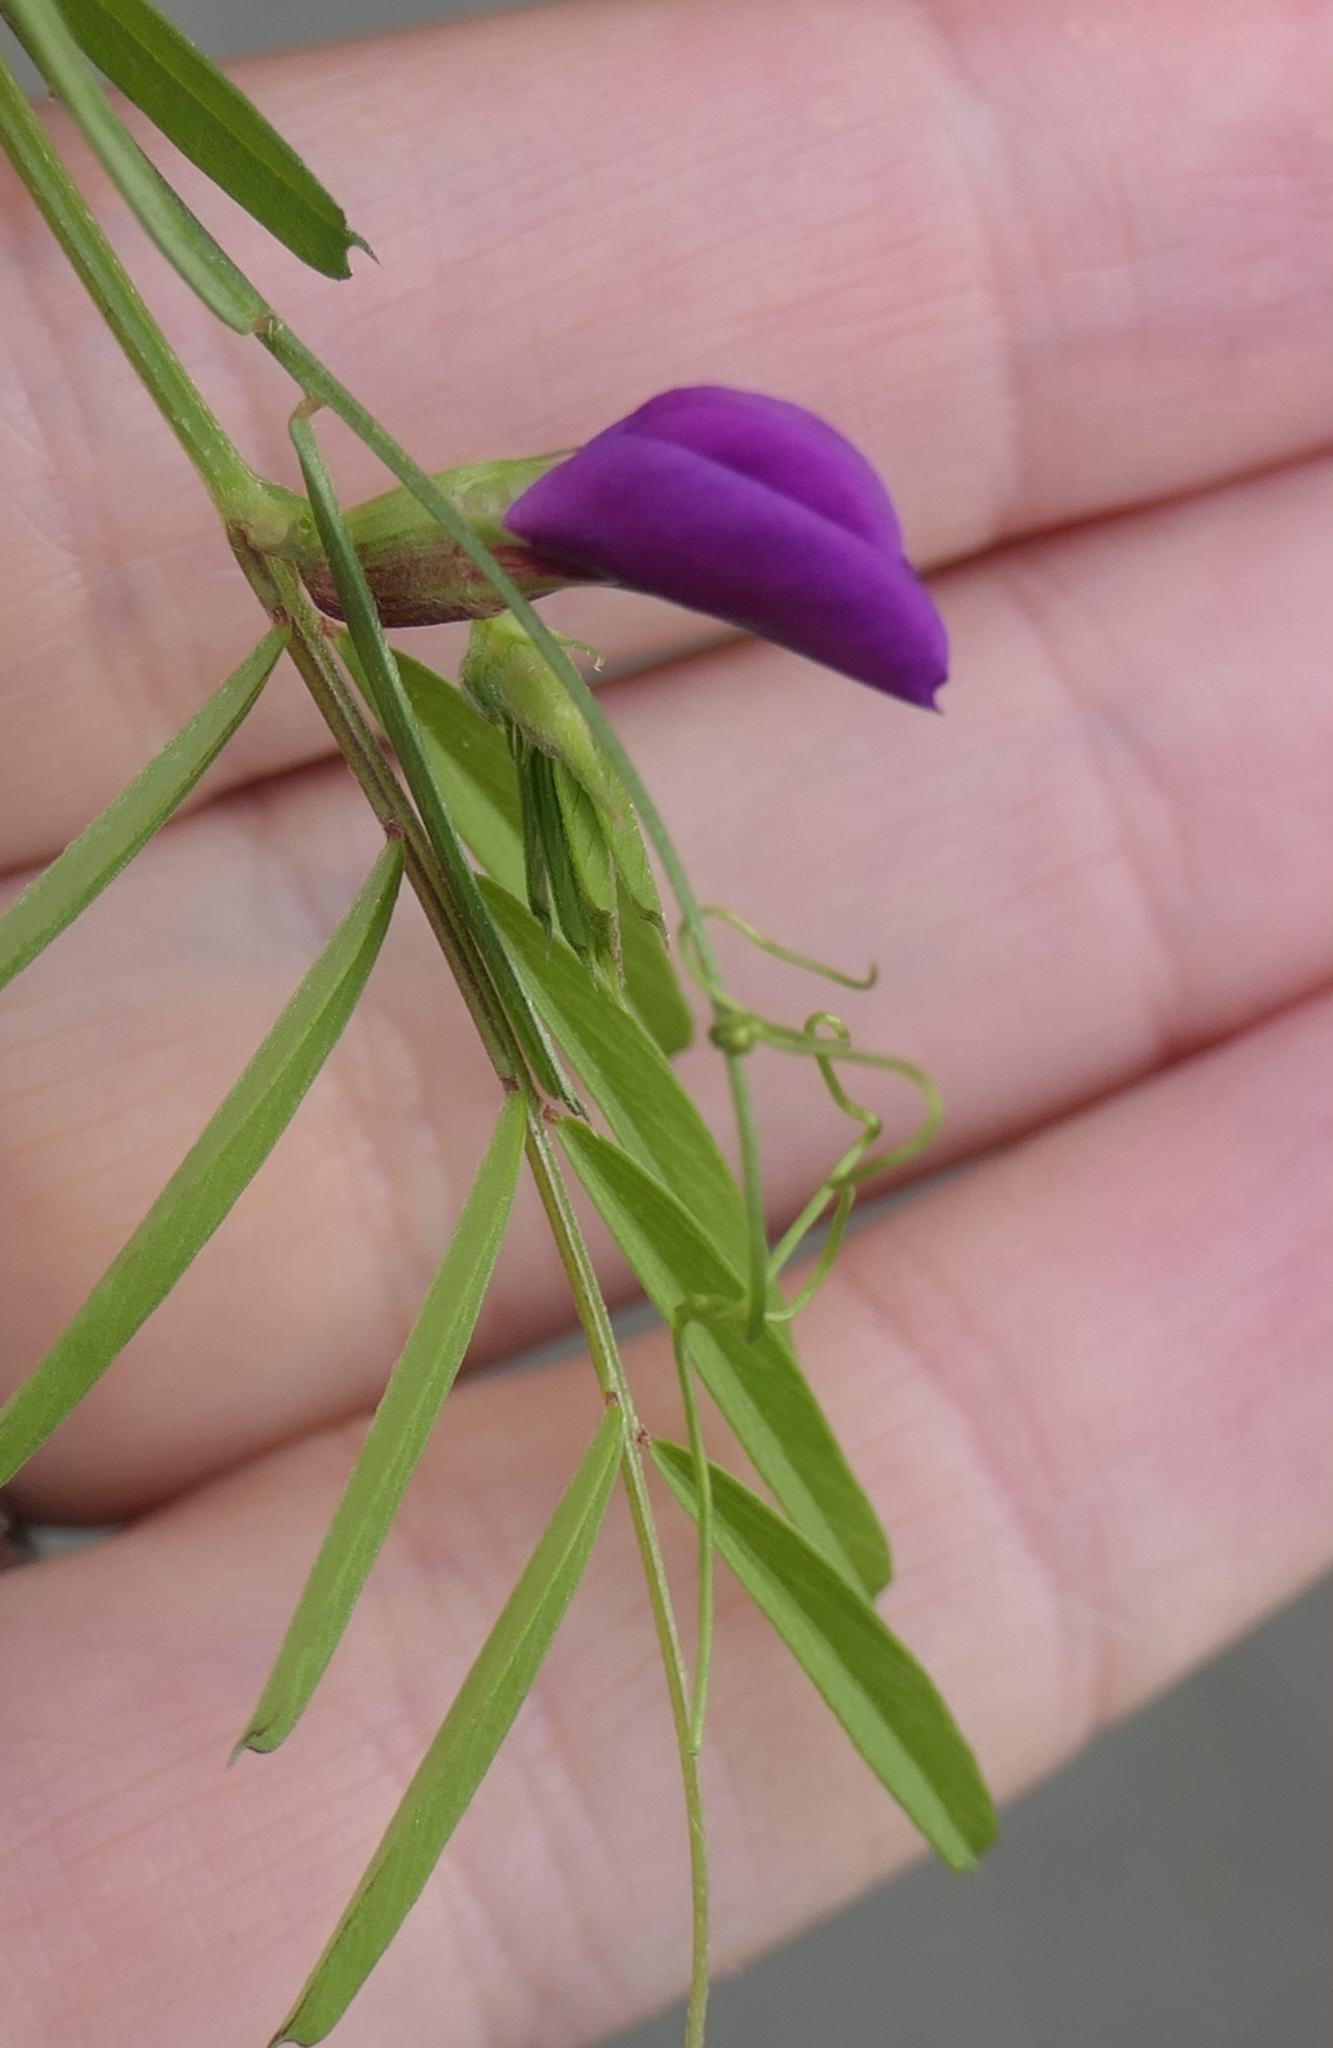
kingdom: Plantae
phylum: Tracheophyta
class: Magnoliopsida
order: Fabales
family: Fabaceae
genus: Vicia
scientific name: Vicia sativa
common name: Garden vetch
